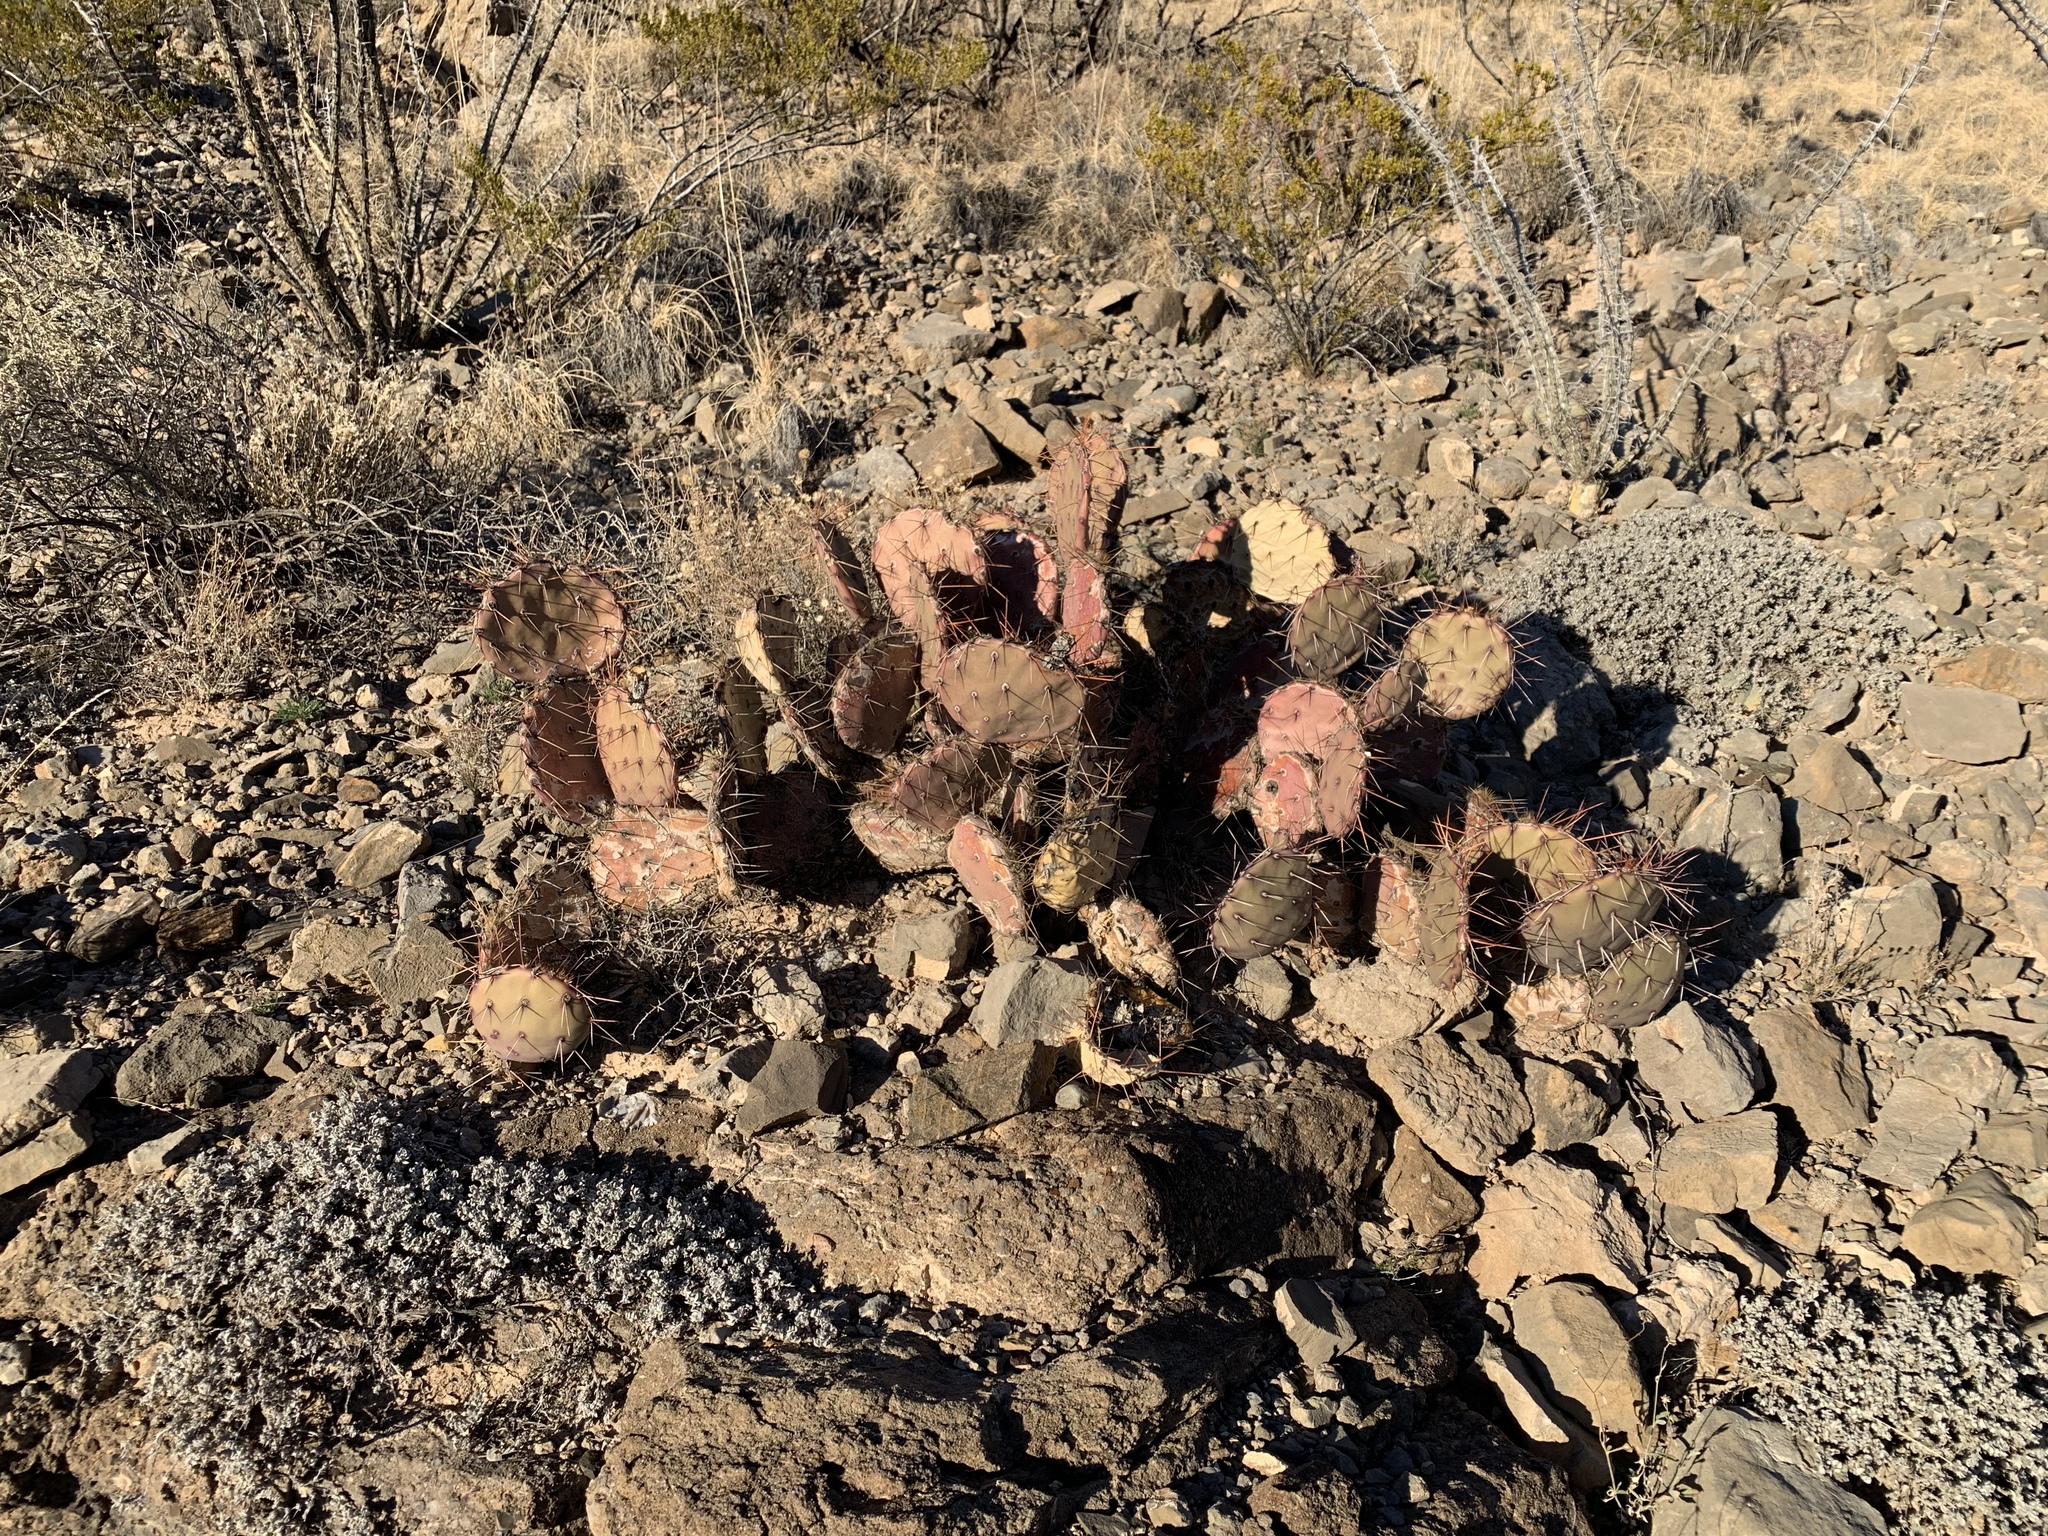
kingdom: Plantae
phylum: Tracheophyta
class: Magnoliopsida
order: Caryophyllales
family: Cactaceae
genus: Opuntia
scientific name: Opuntia macrocentra
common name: Purple prickly-pear
